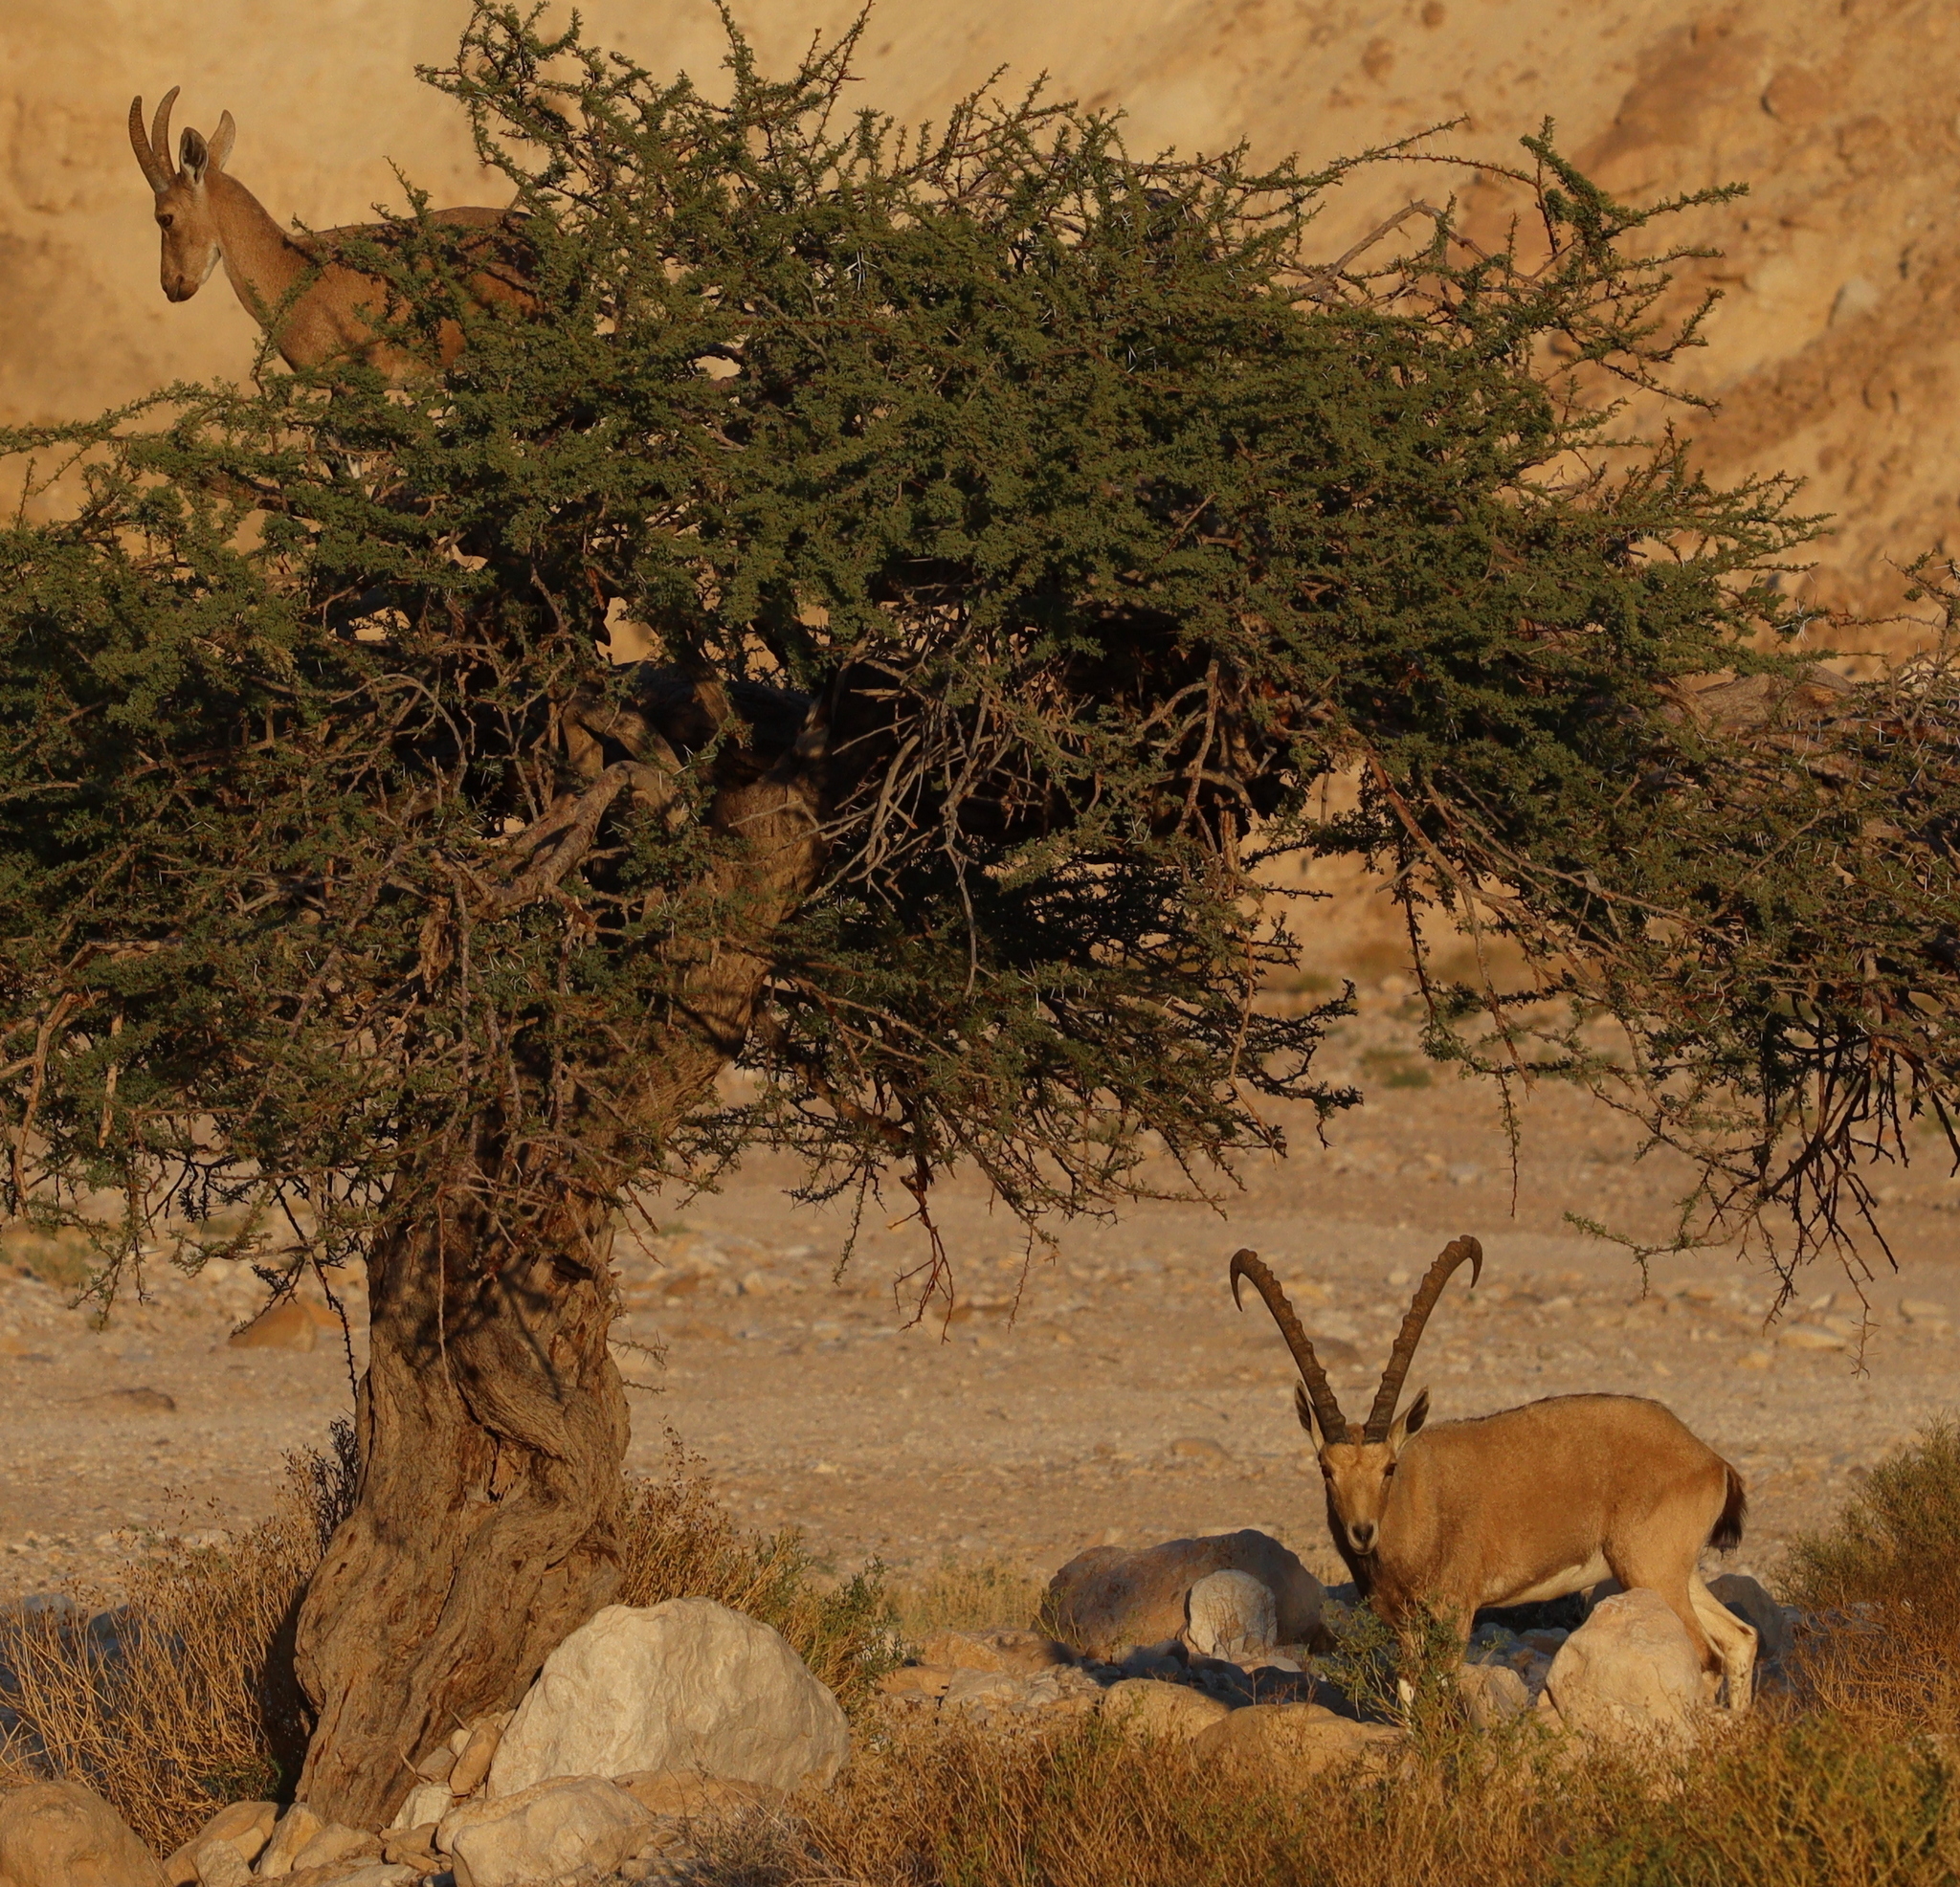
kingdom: Animalia
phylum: Chordata
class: Mammalia
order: Artiodactyla
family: Bovidae
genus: Capra
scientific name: Capra nubiana
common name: Nubian ibex
